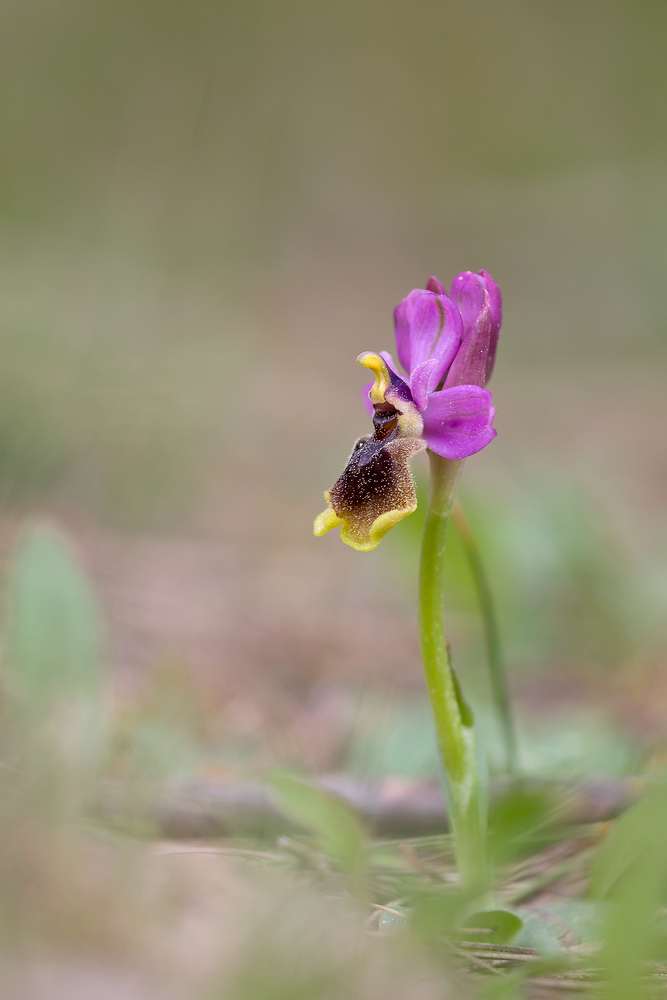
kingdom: Plantae
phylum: Tracheophyta
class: Liliopsida
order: Asparagales
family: Orchidaceae
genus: Ophrys
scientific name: Ophrys tenthredinifera
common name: Sawfly orchid
